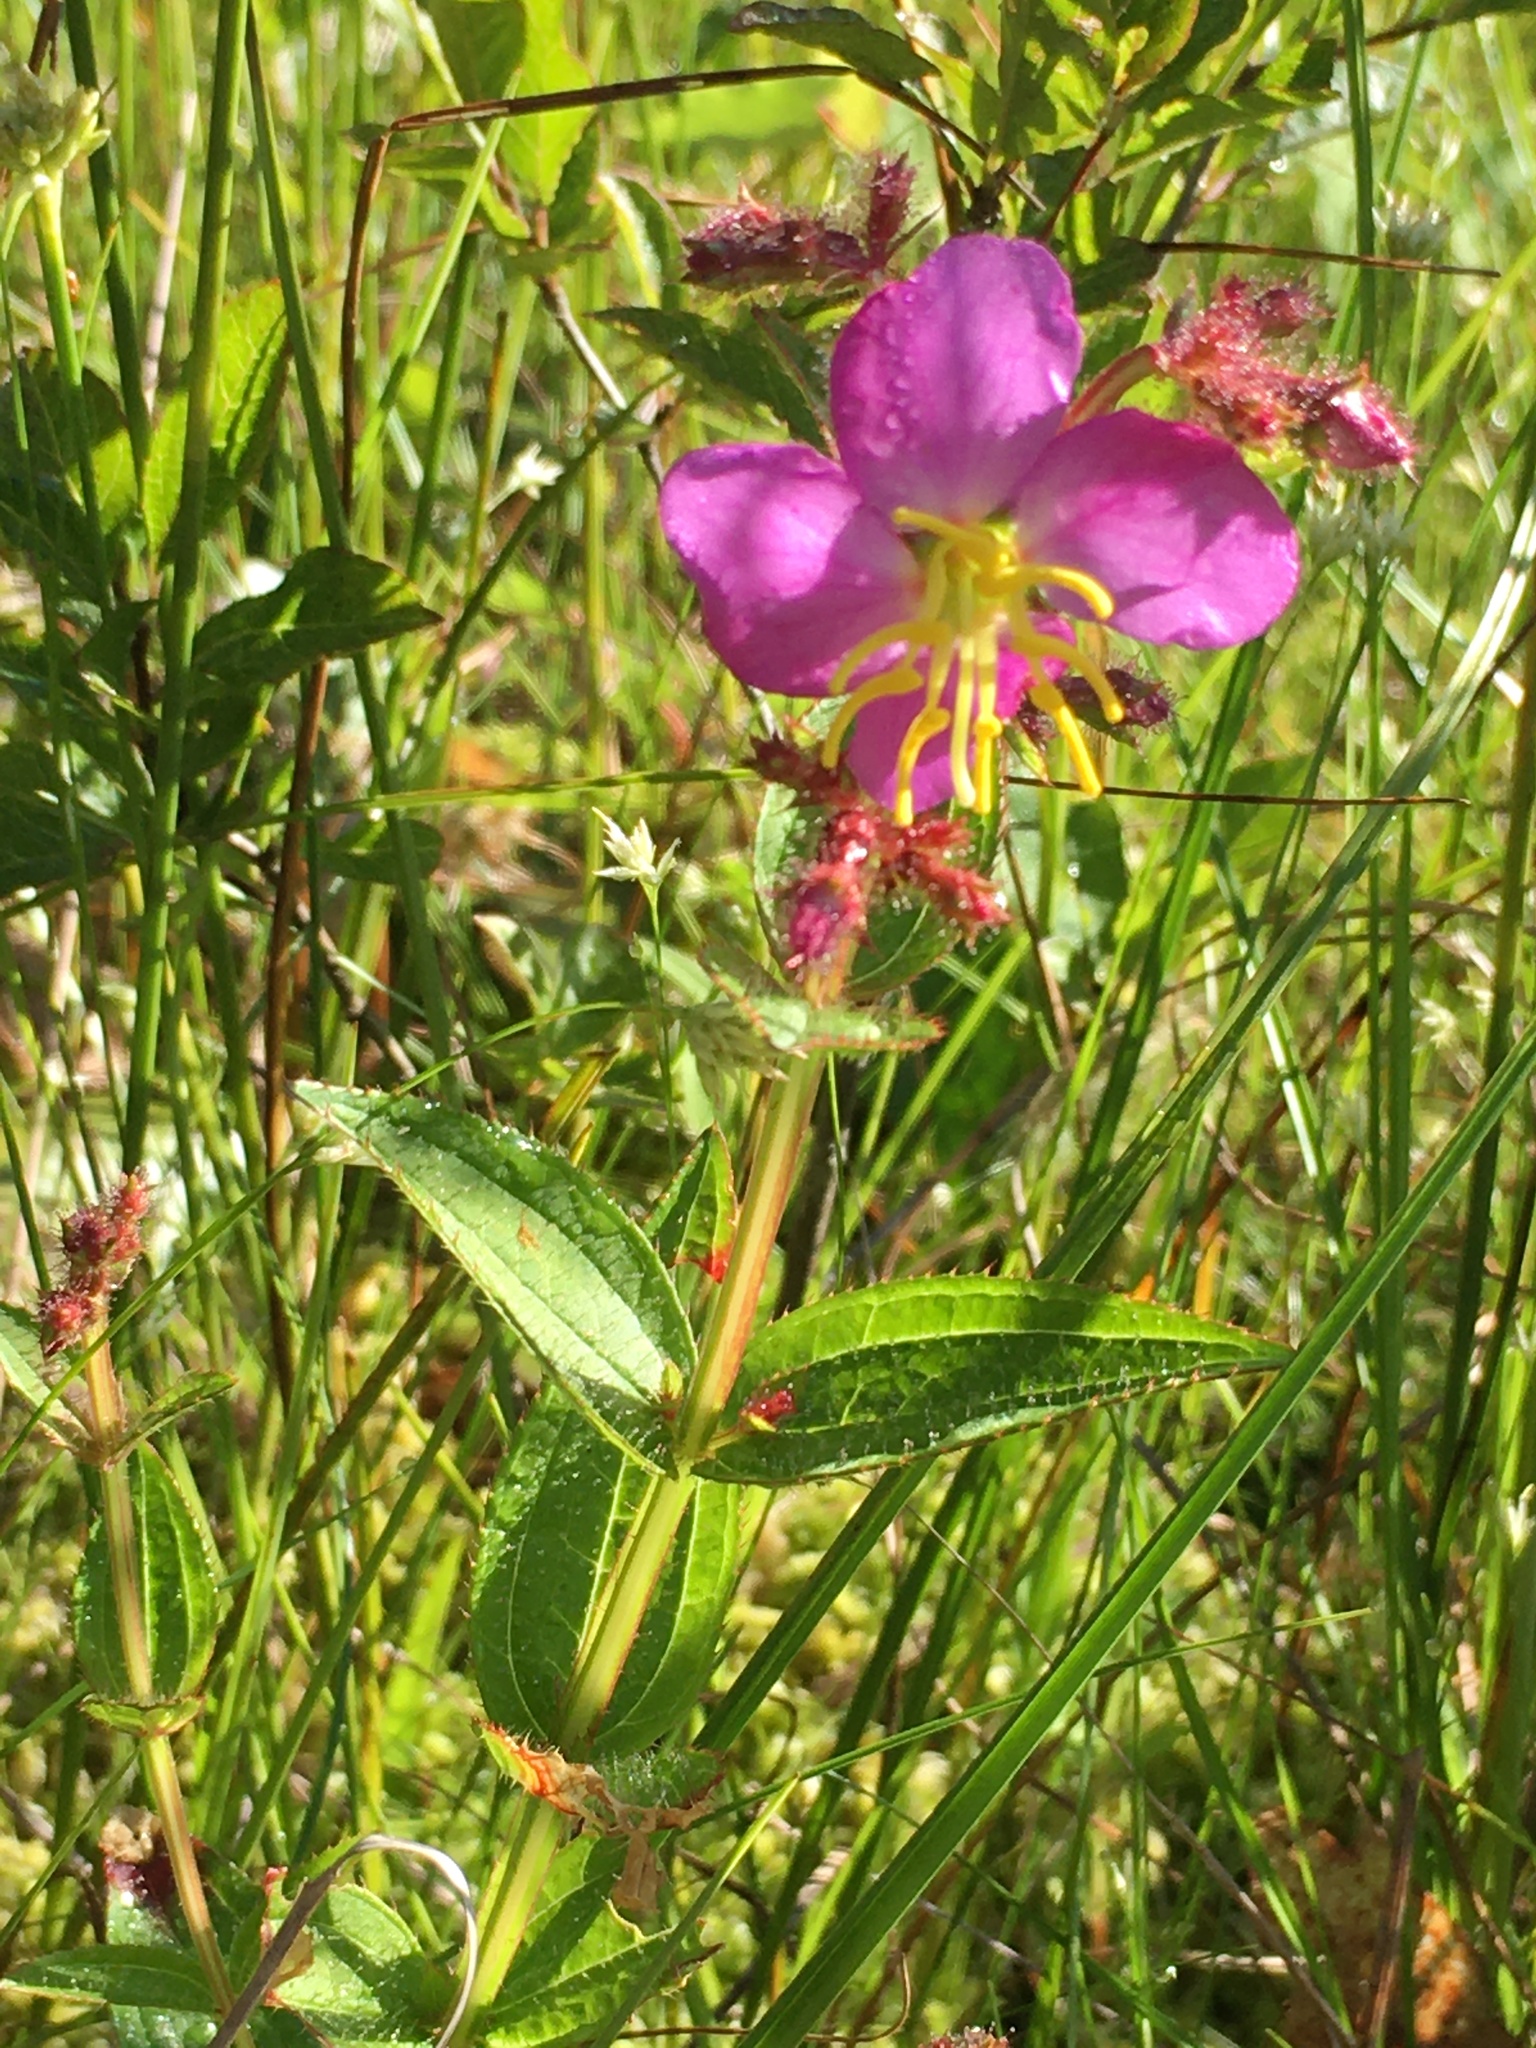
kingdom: Plantae
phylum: Tracheophyta
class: Magnoliopsida
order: Myrtales
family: Melastomataceae
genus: Rhexia
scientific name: Rhexia virginica
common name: Common meadow beauty
